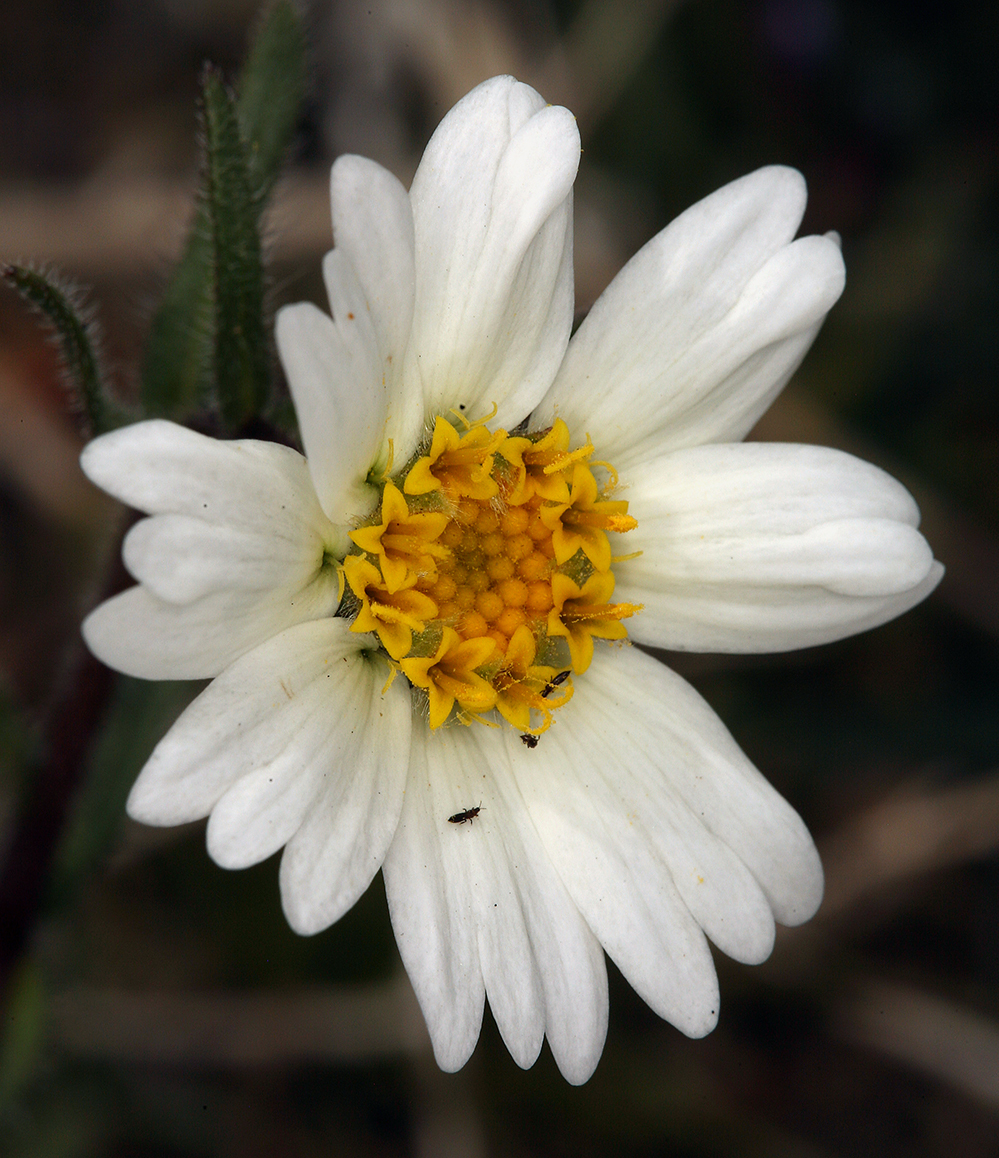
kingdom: Plantae
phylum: Tracheophyta
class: Magnoliopsida
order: Asterales
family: Asteraceae
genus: Layia
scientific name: Layia glandulosa
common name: White layia
